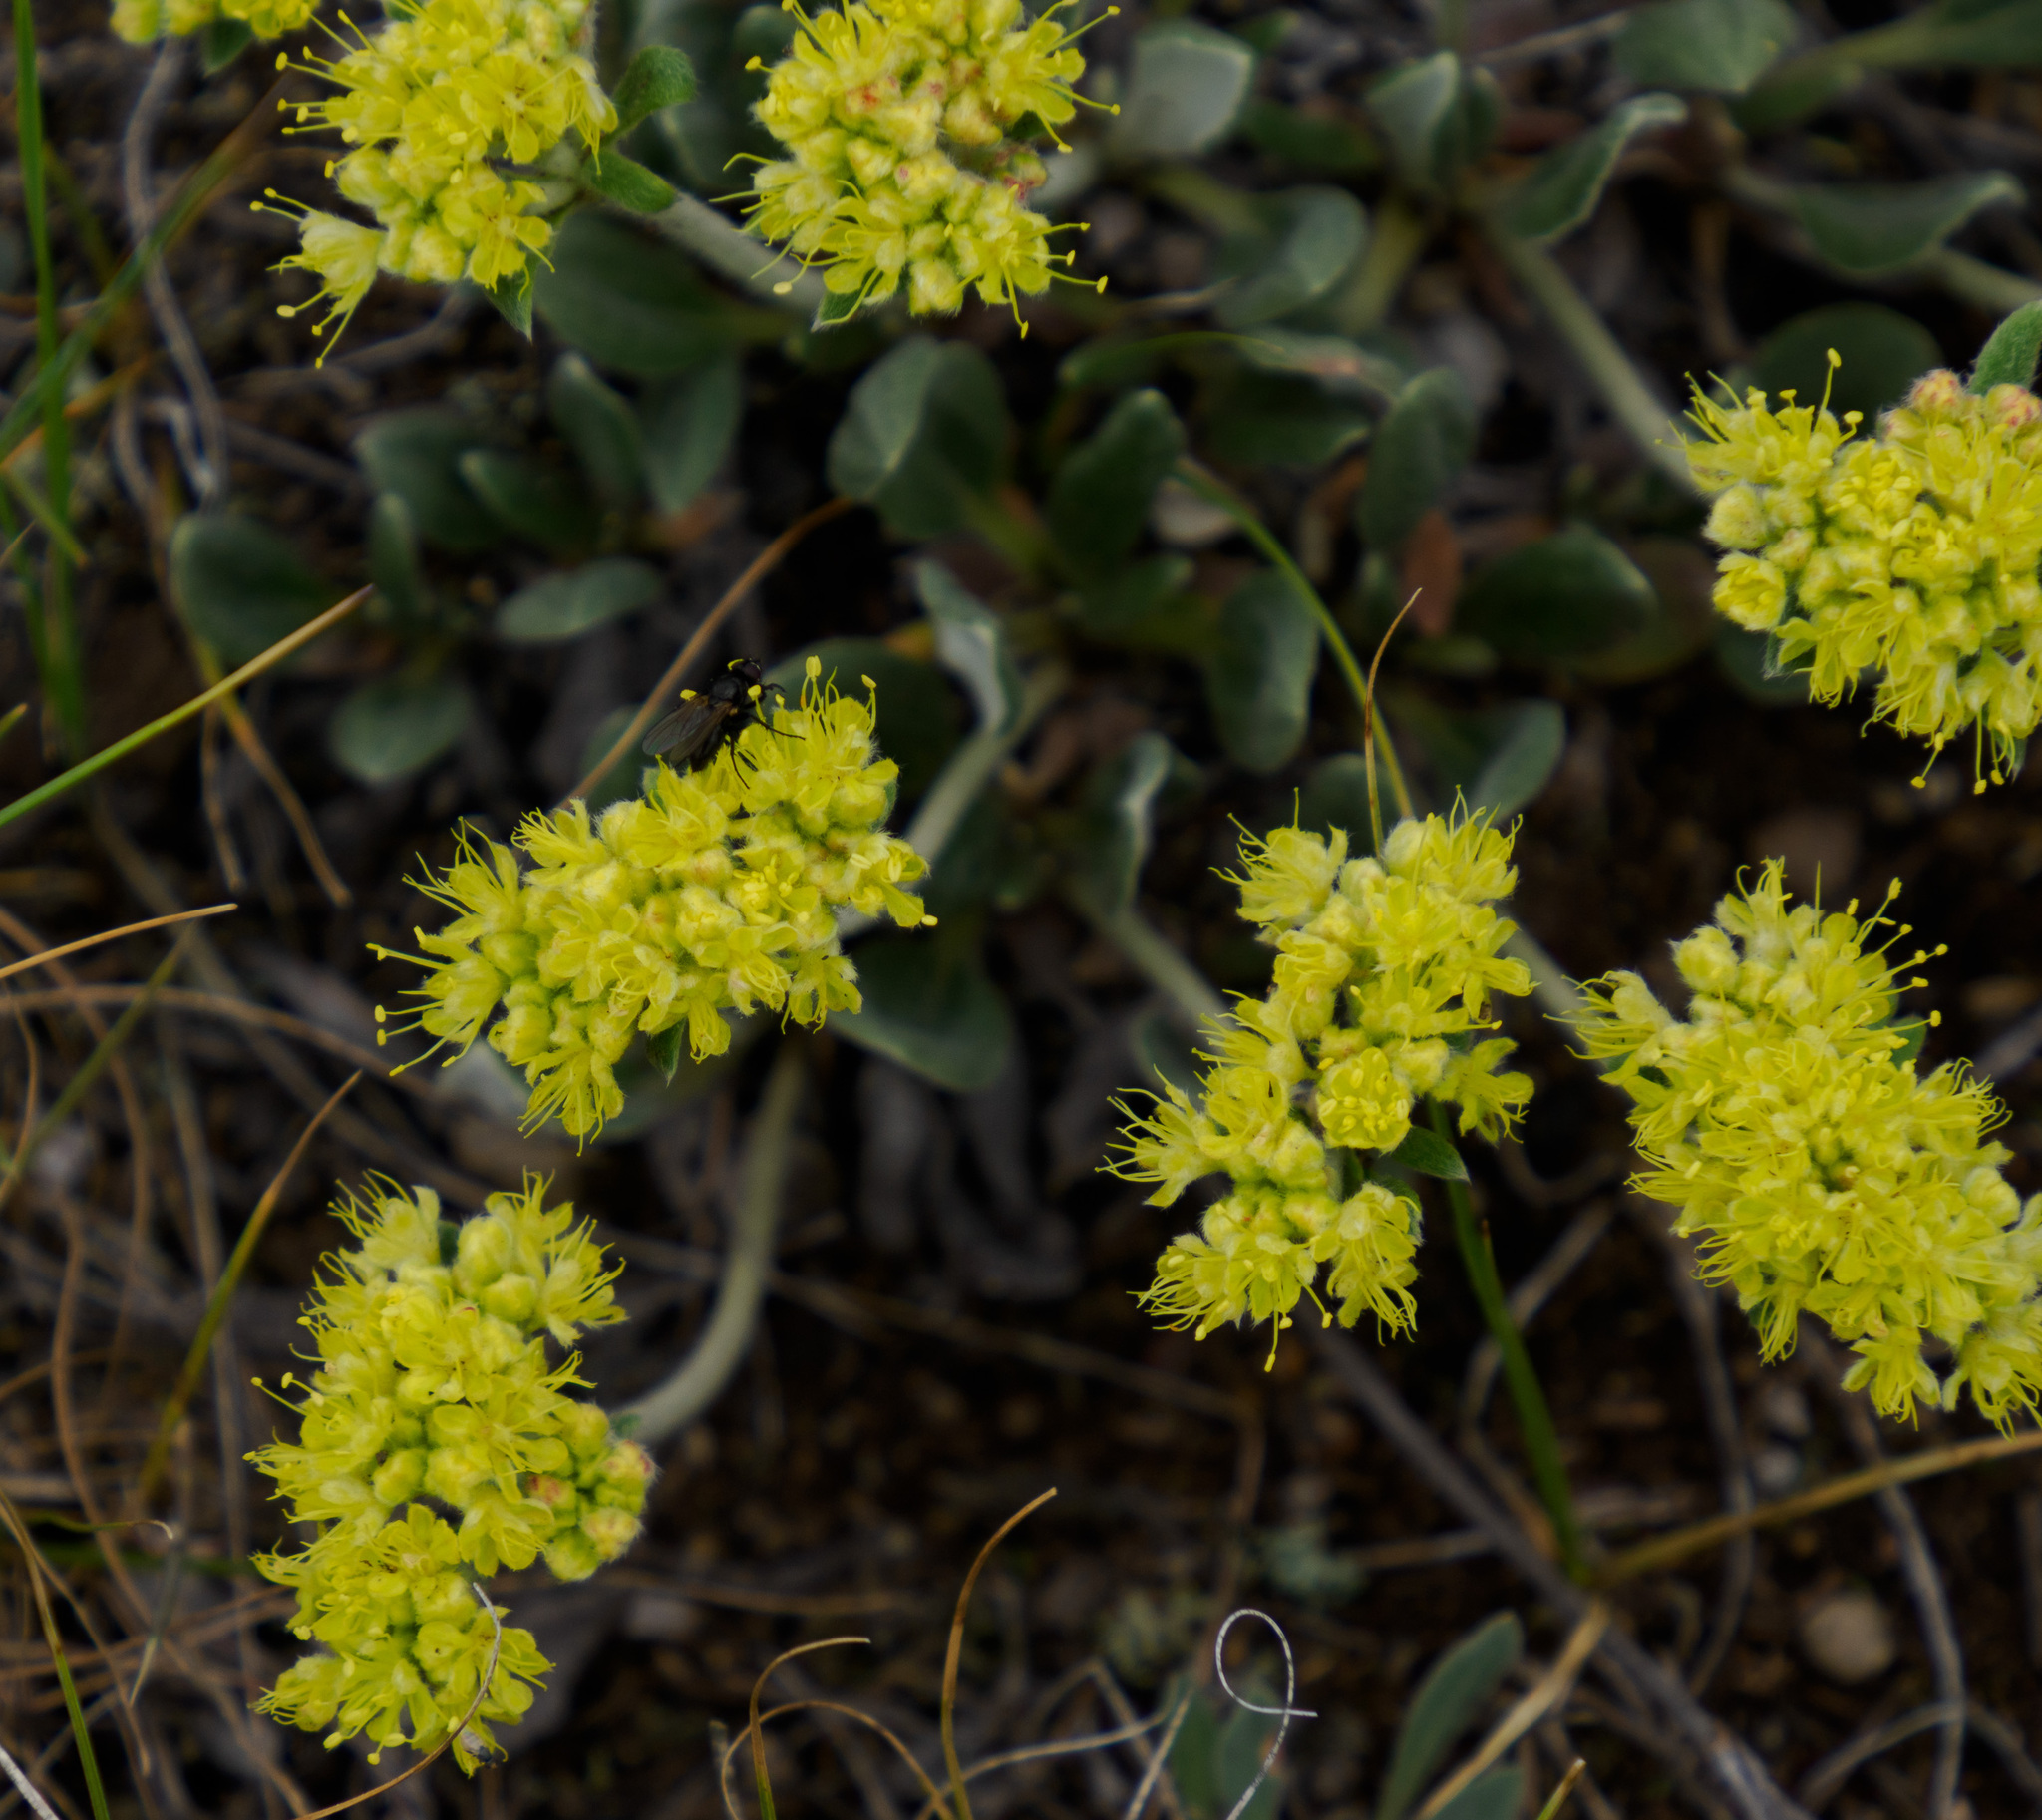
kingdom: Plantae
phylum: Tracheophyta
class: Magnoliopsida
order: Caryophyllales
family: Polygonaceae
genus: Eriogonum
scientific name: Eriogonum flavum
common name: Alpine golden wild buckwheat
